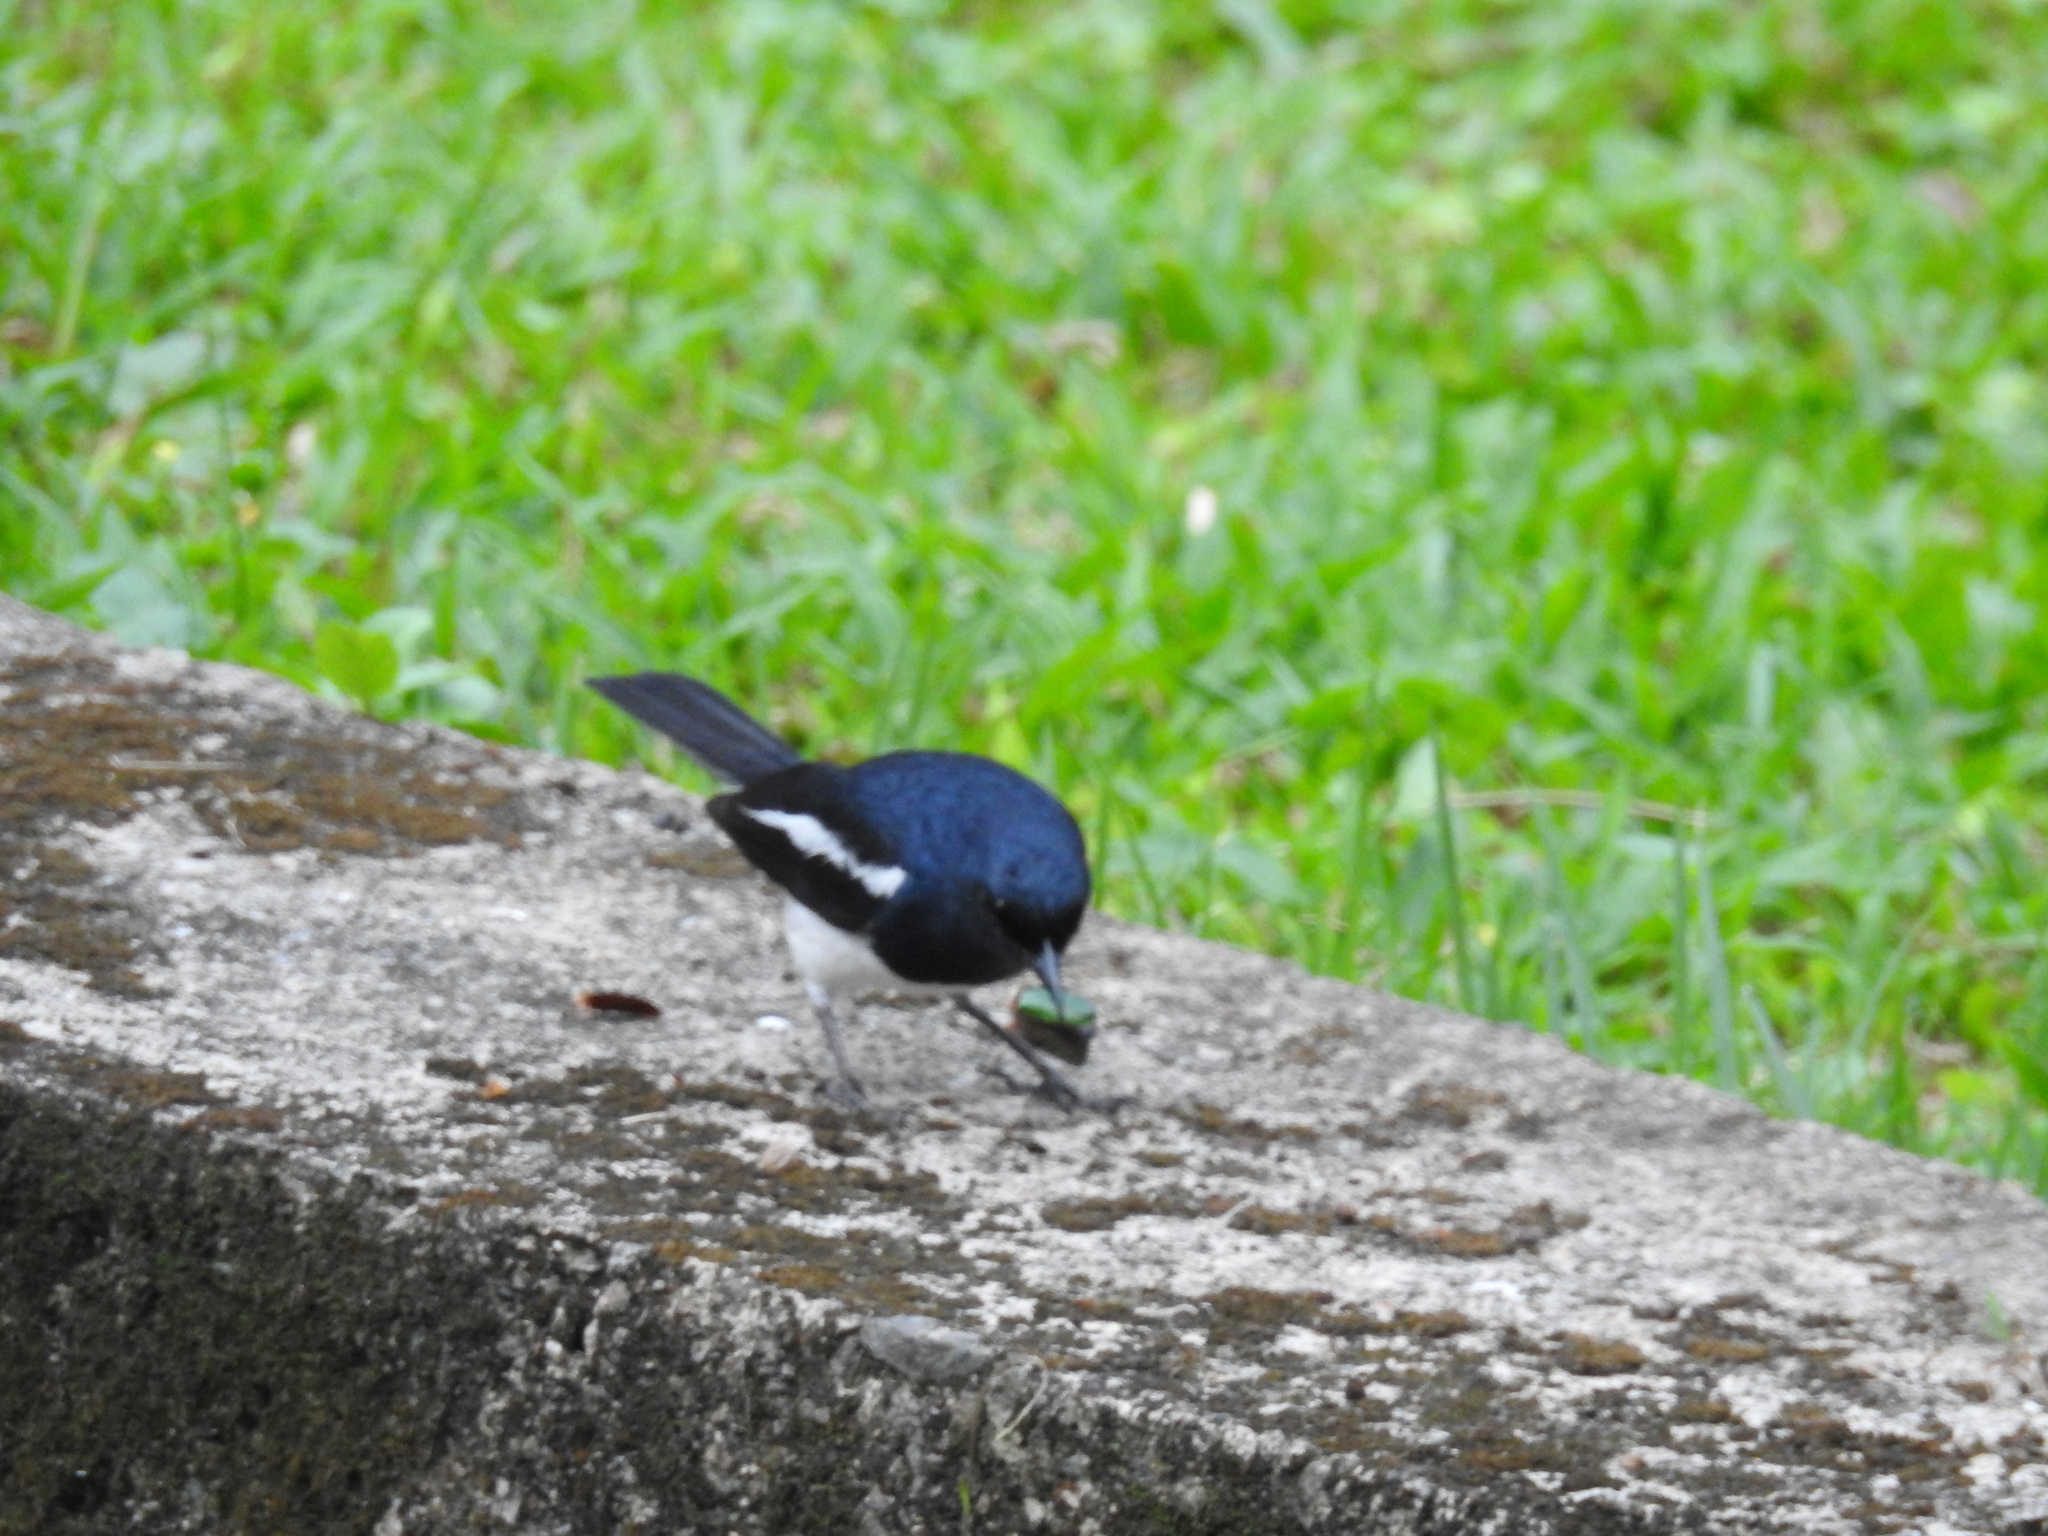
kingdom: Animalia
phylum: Chordata
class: Aves
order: Passeriformes
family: Muscicapidae
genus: Copsychus
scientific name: Copsychus saularis
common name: Oriental magpie-robin
